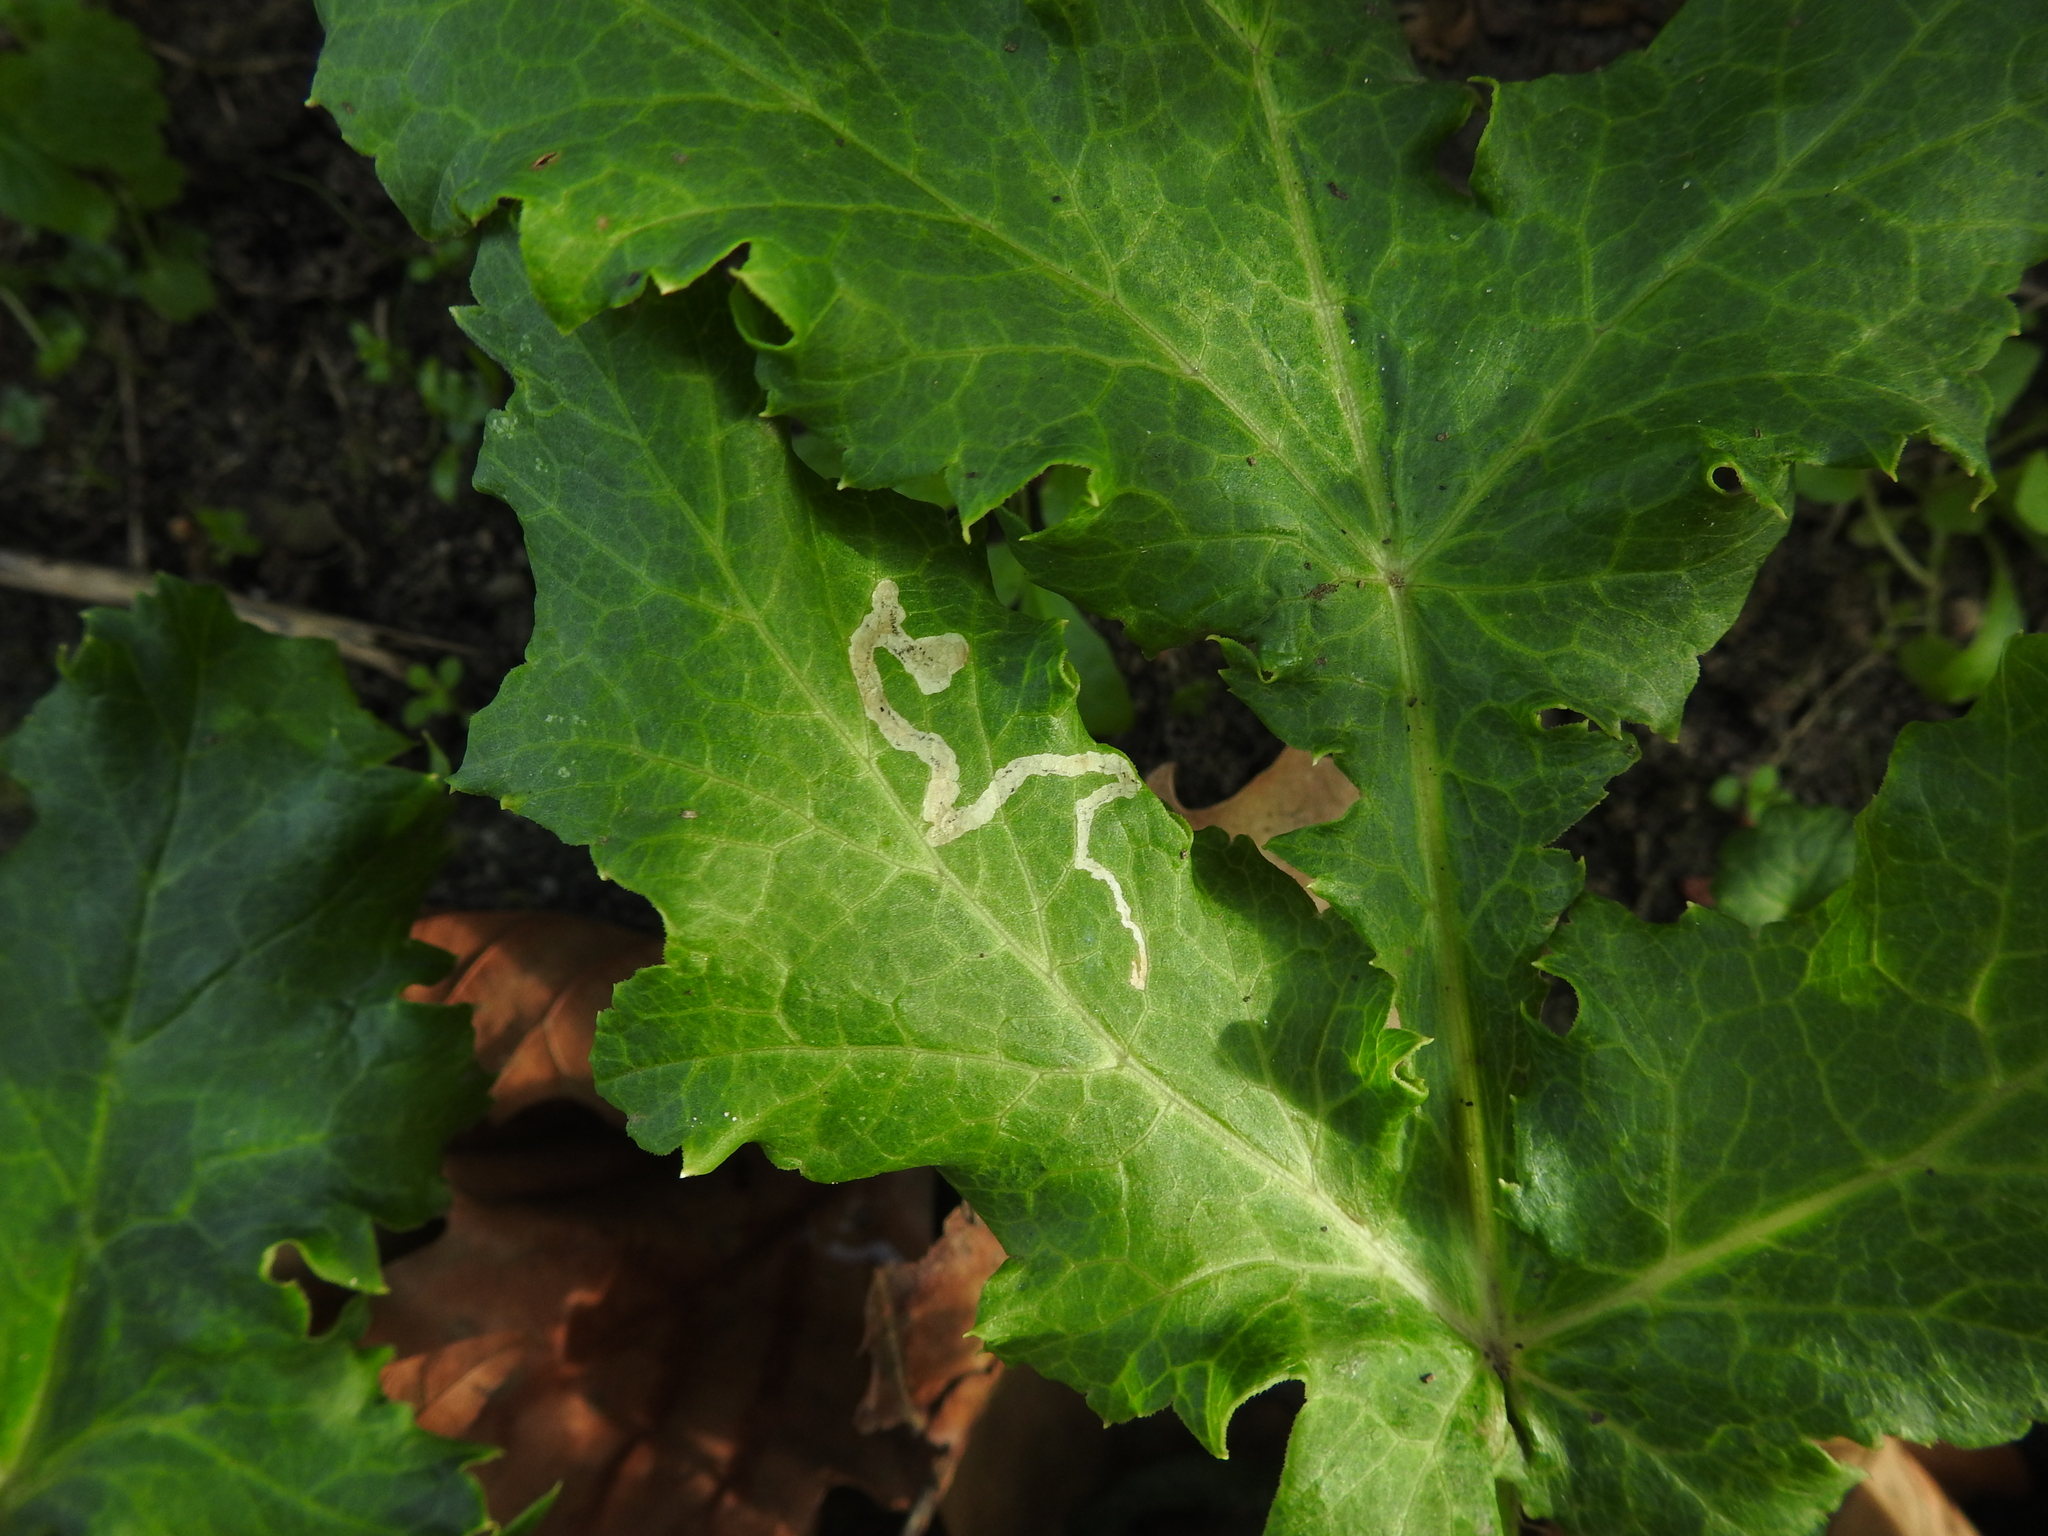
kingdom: Animalia
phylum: Arthropoda
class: Insecta
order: Diptera
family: Agromyzidae
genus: Phytomyza
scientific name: Phytomyza syngenesiae
